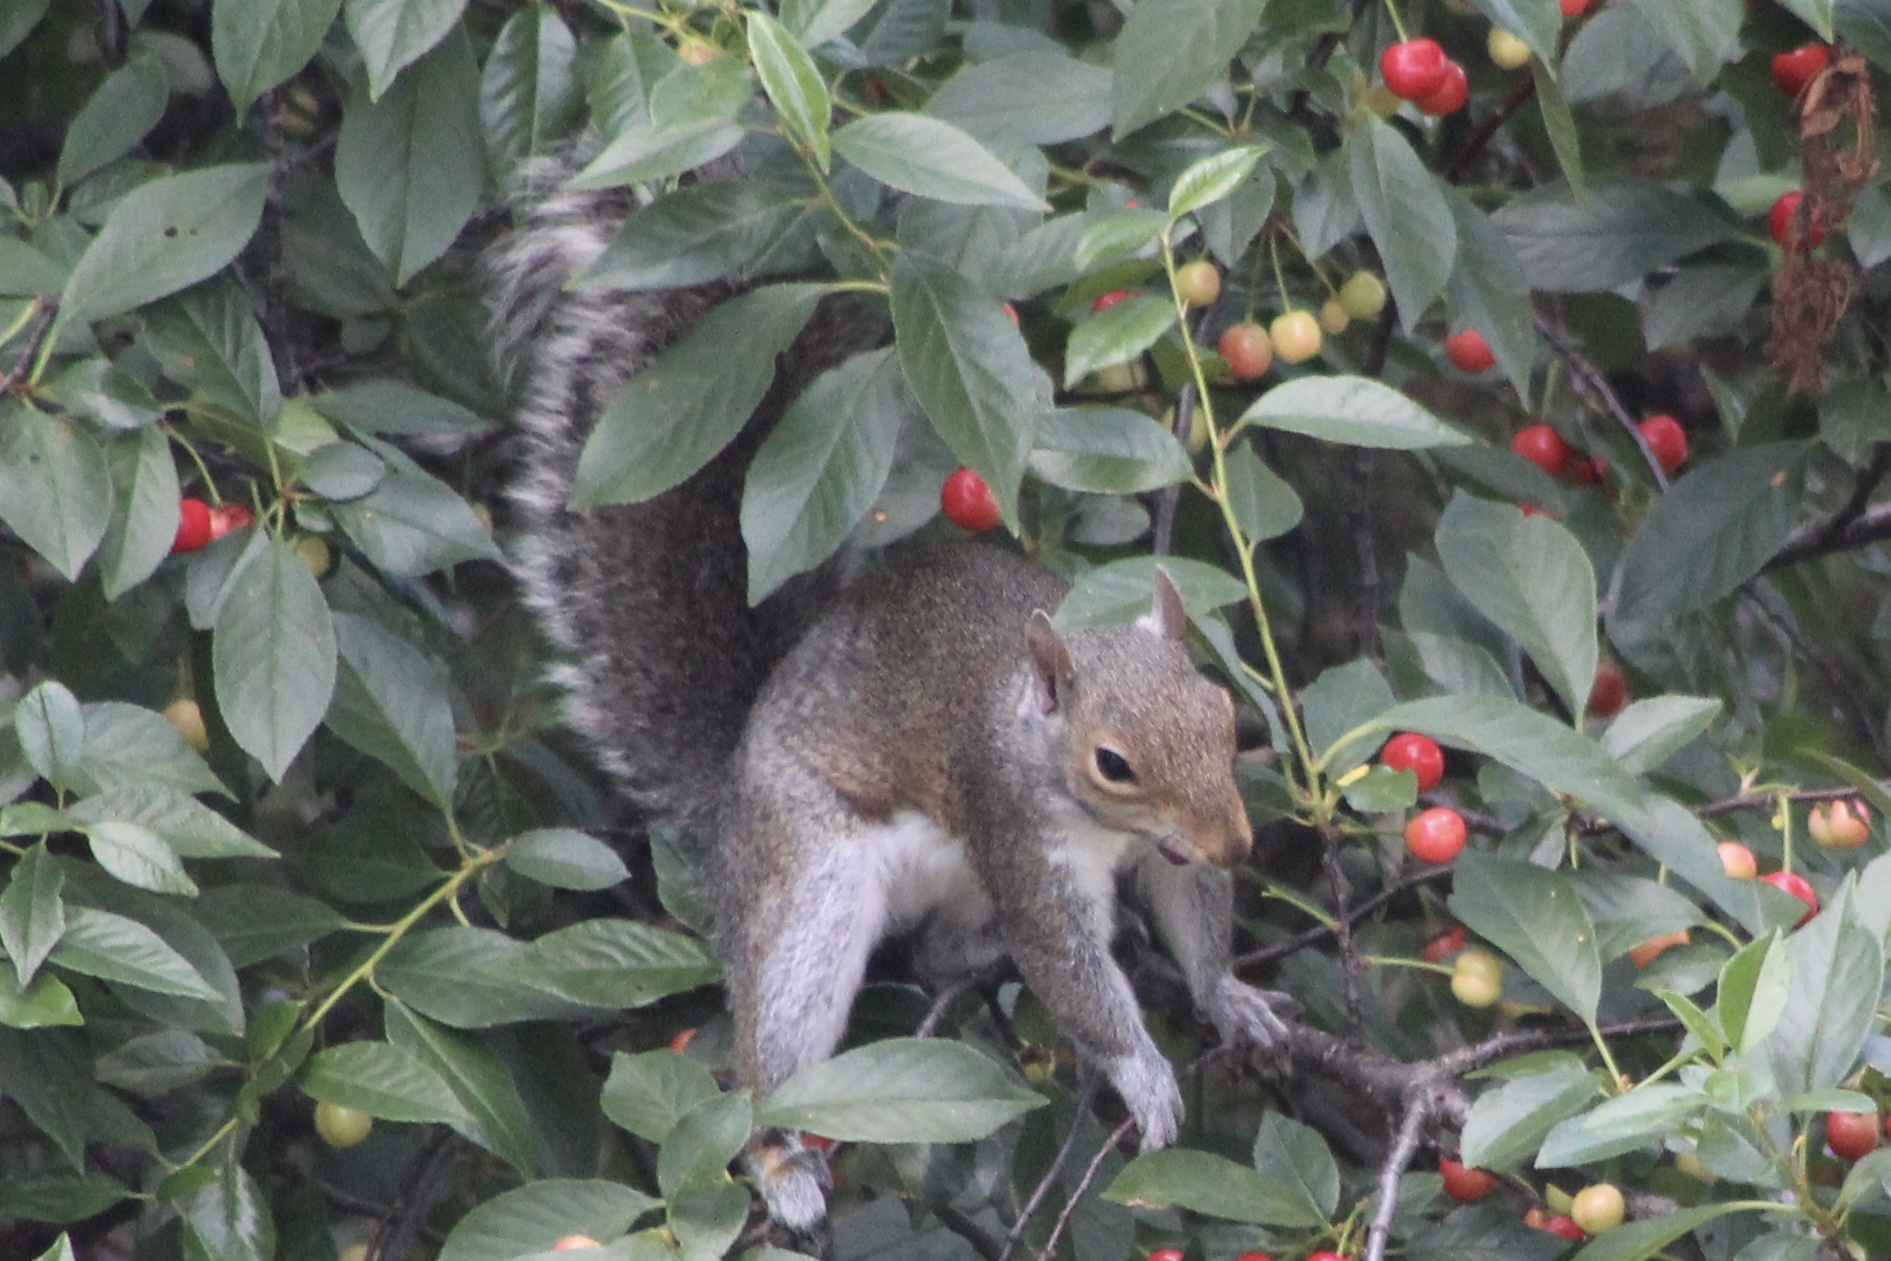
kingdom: Animalia
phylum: Chordata
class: Mammalia
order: Rodentia
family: Sciuridae
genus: Sciurus
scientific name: Sciurus carolinensis
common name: Eastern gray squirrel
